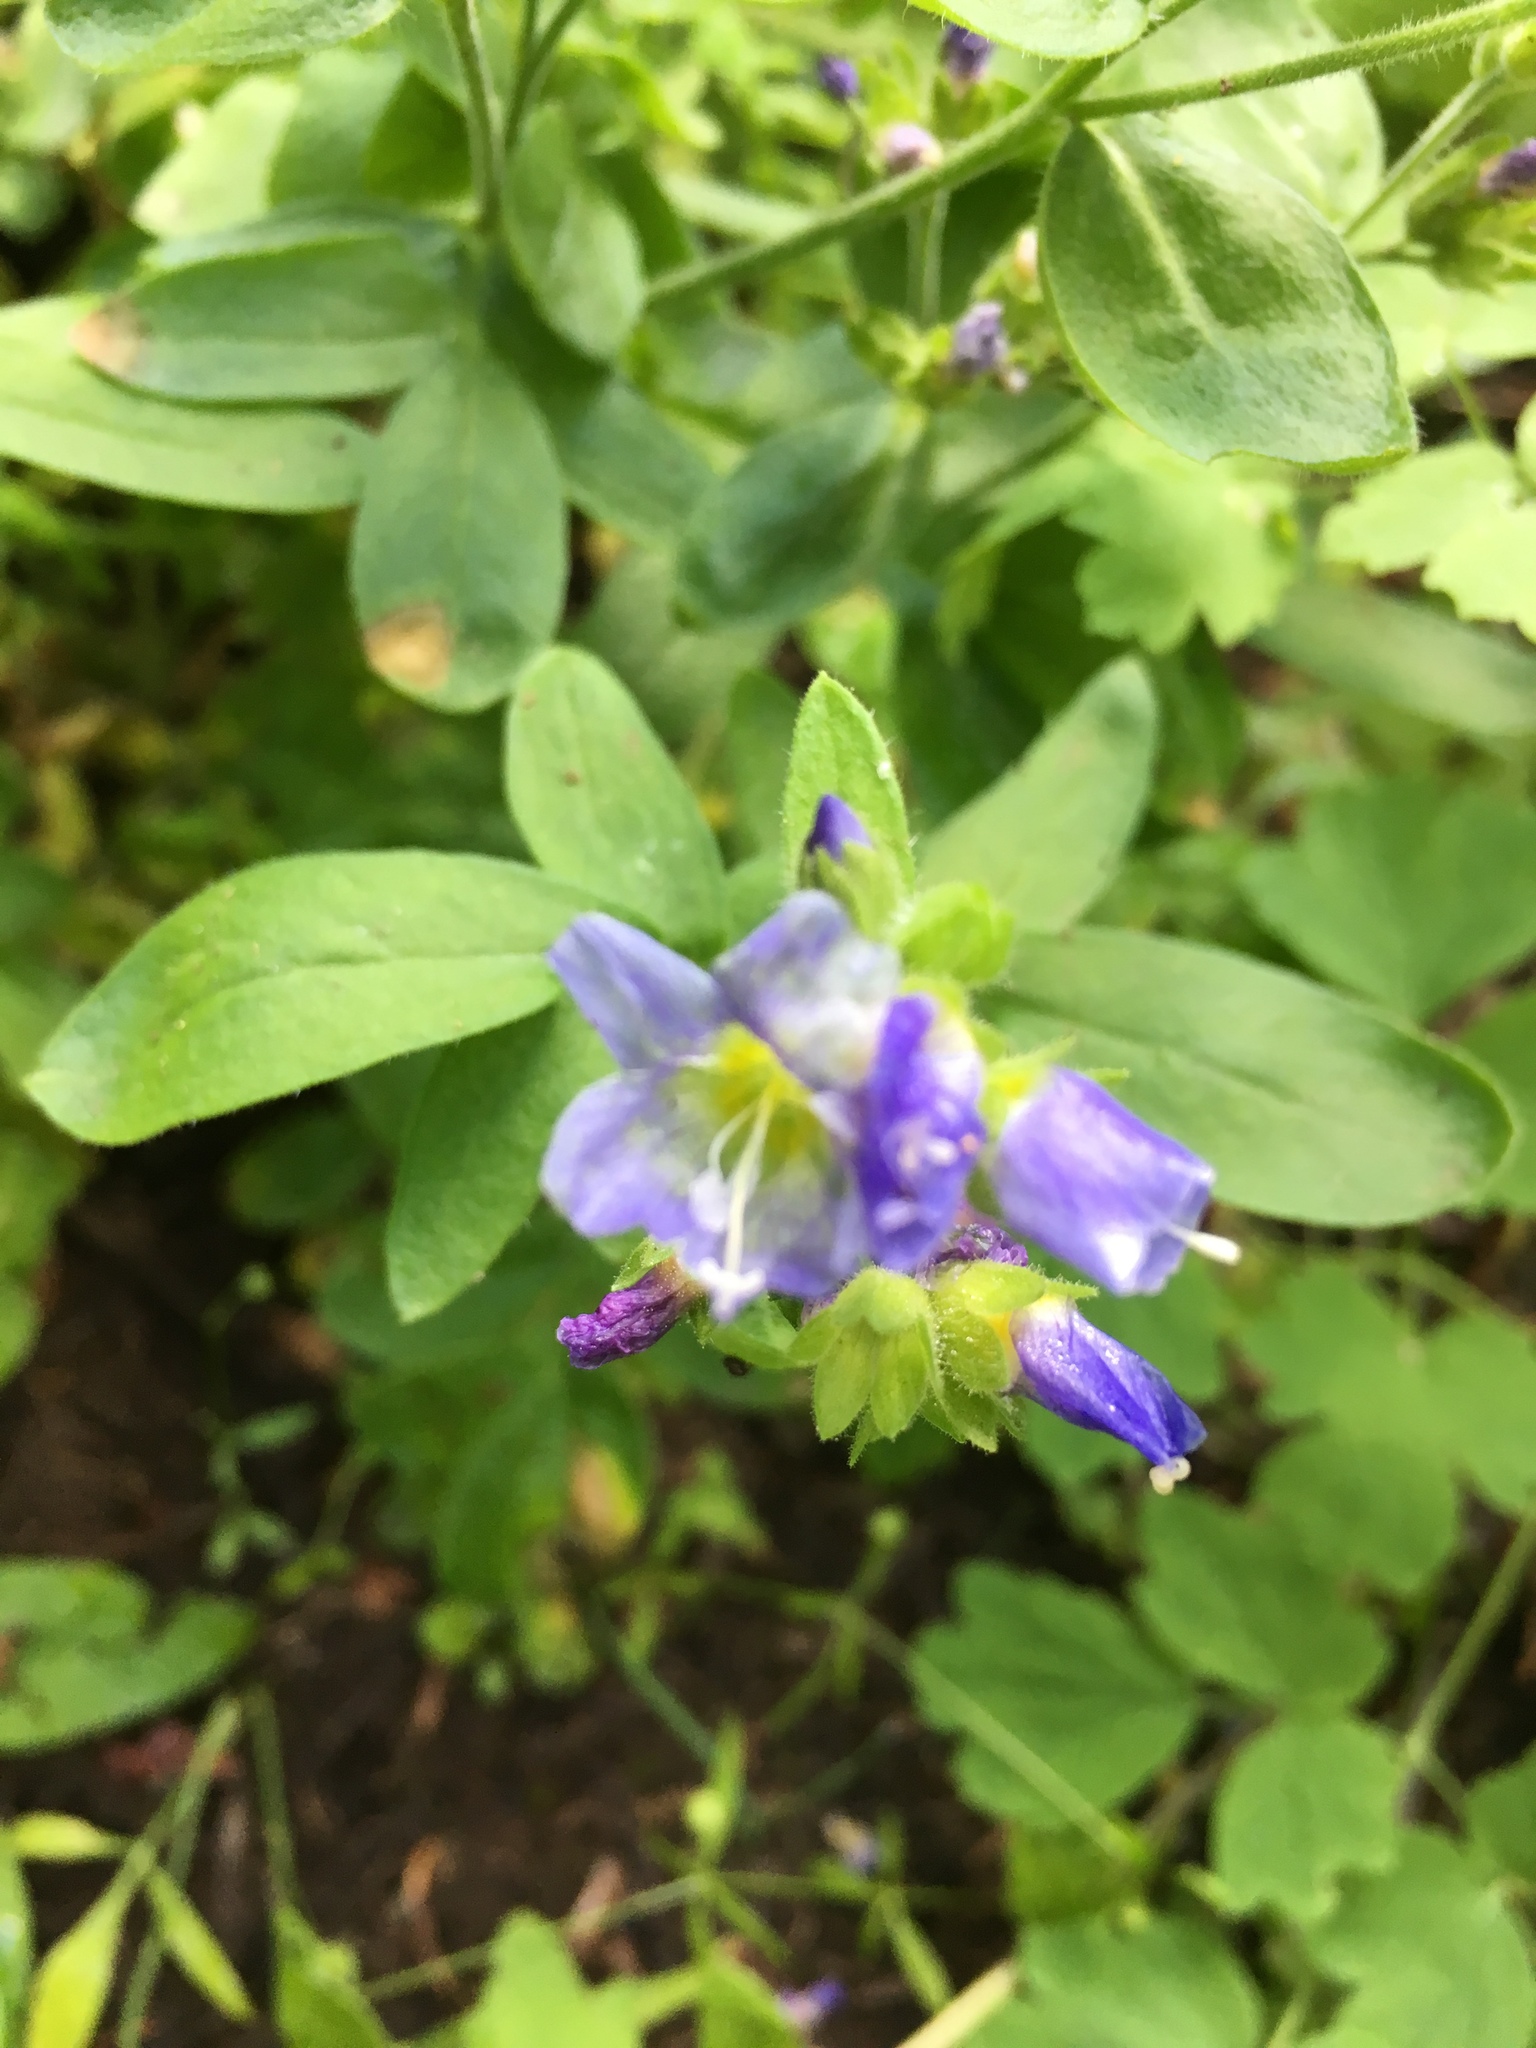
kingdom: Plantae
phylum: Tracheophyta
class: Magnoliopsida
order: Ericales
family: Polemoniaceae
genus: Polemonium
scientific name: Polemonium californicum
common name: California jacob's ladder
